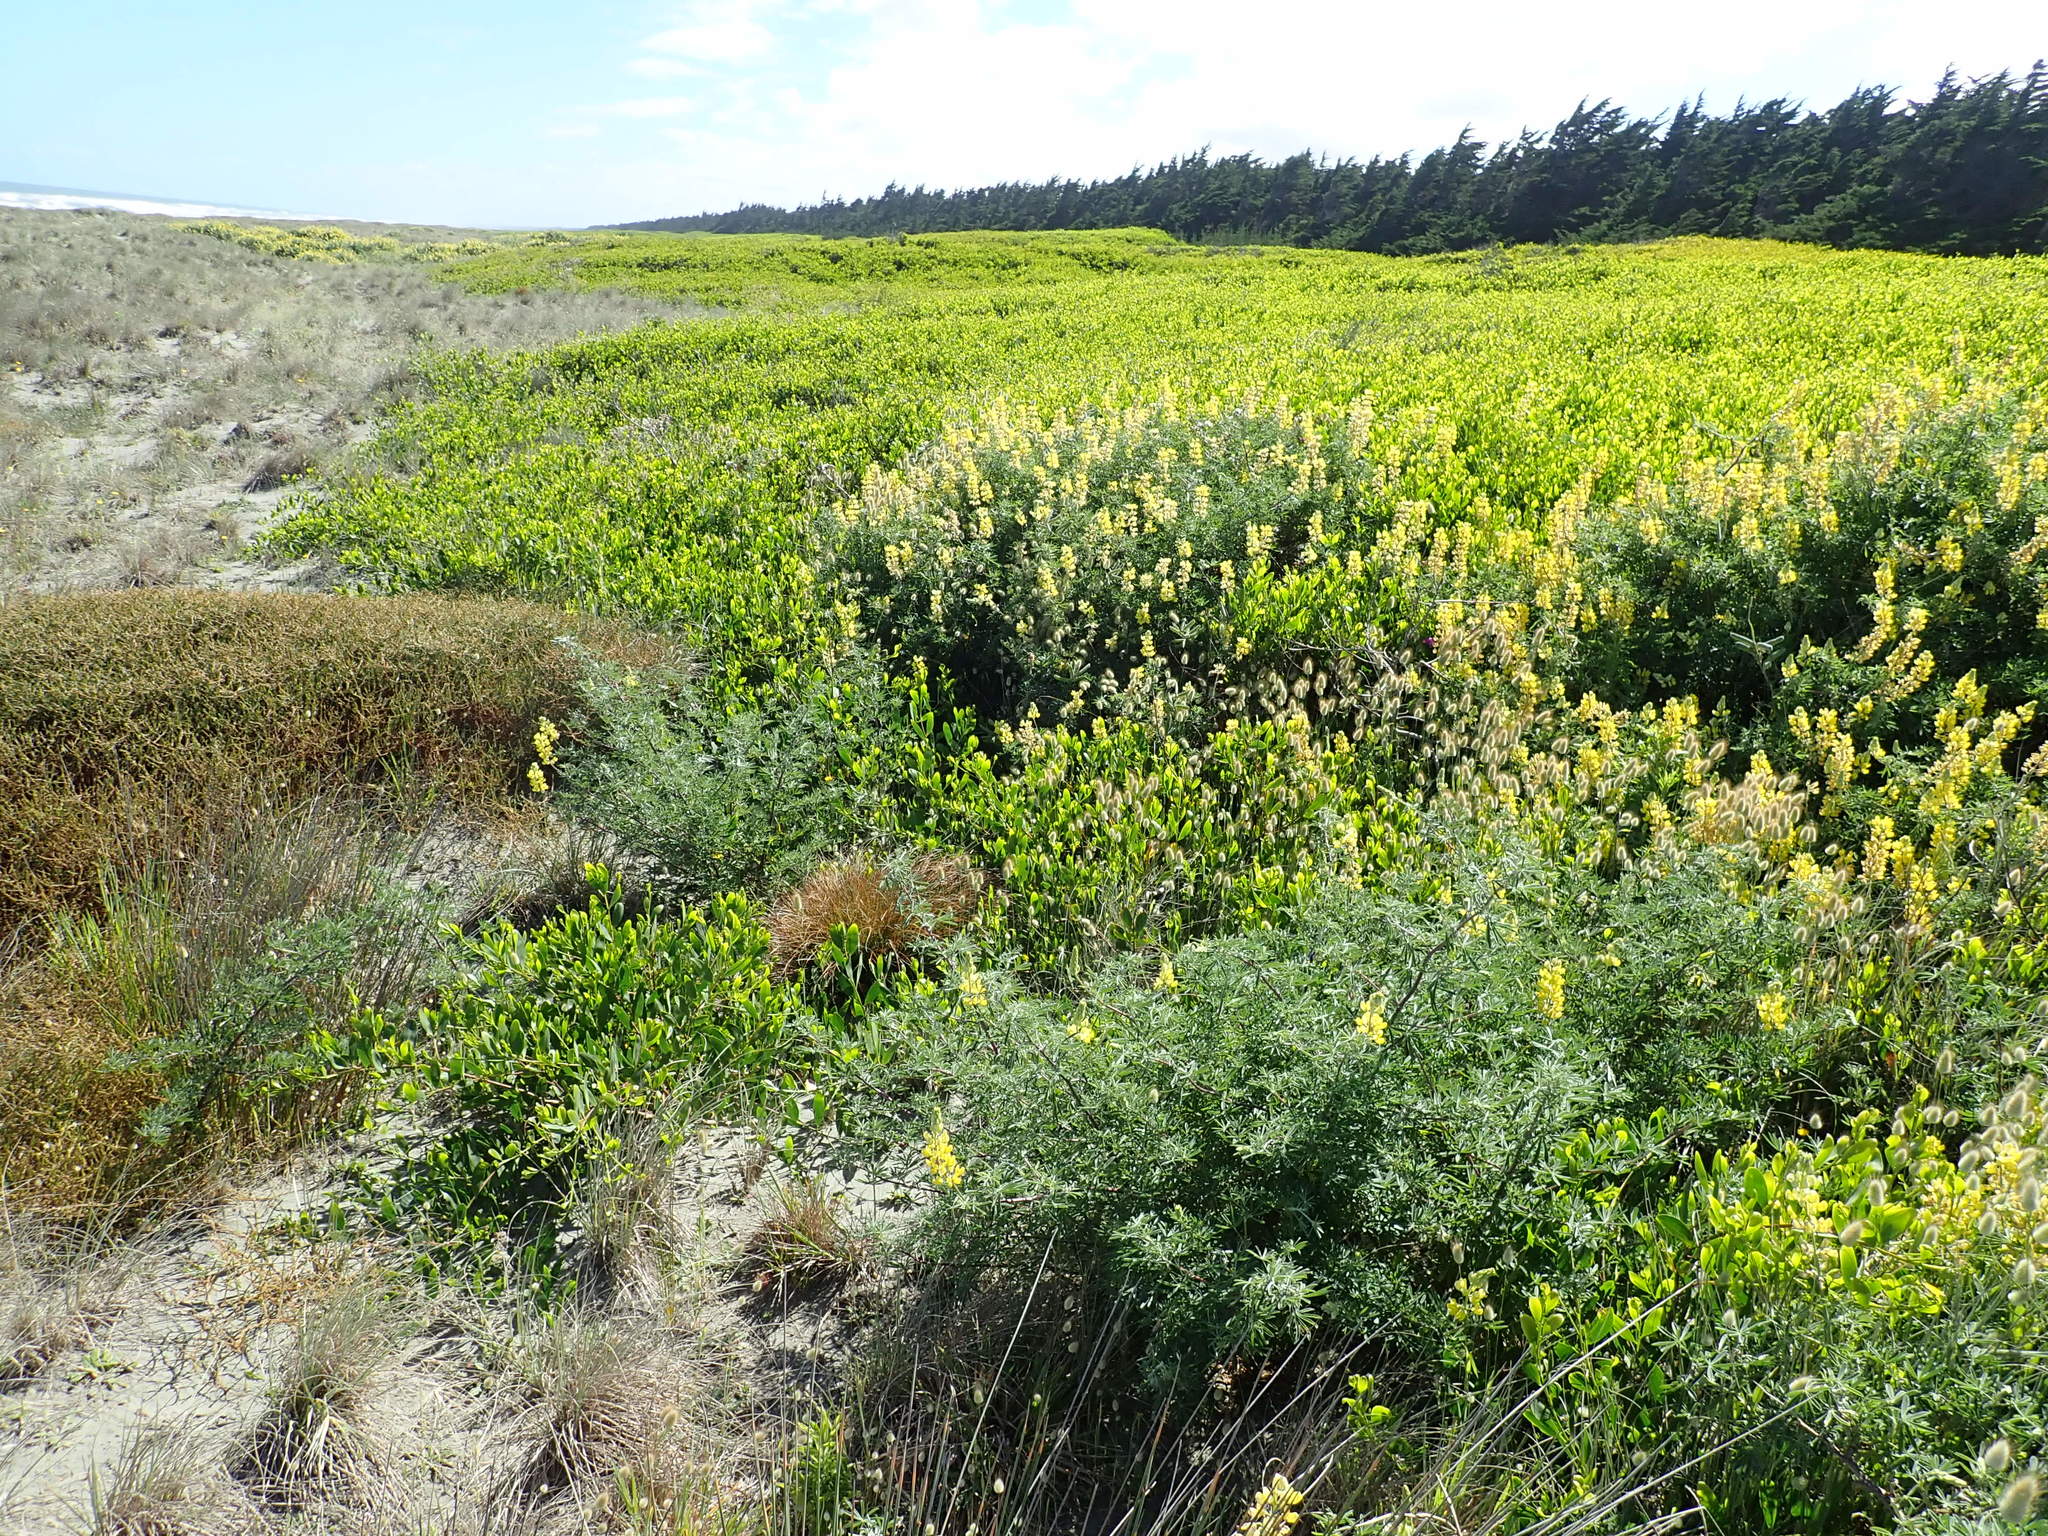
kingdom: Plantae
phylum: Tracheophyta
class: Magnoliopsida
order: Fabales
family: Fabaceae
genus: Acacia
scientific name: Acacia longifolia
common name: Sydney golden wattle
